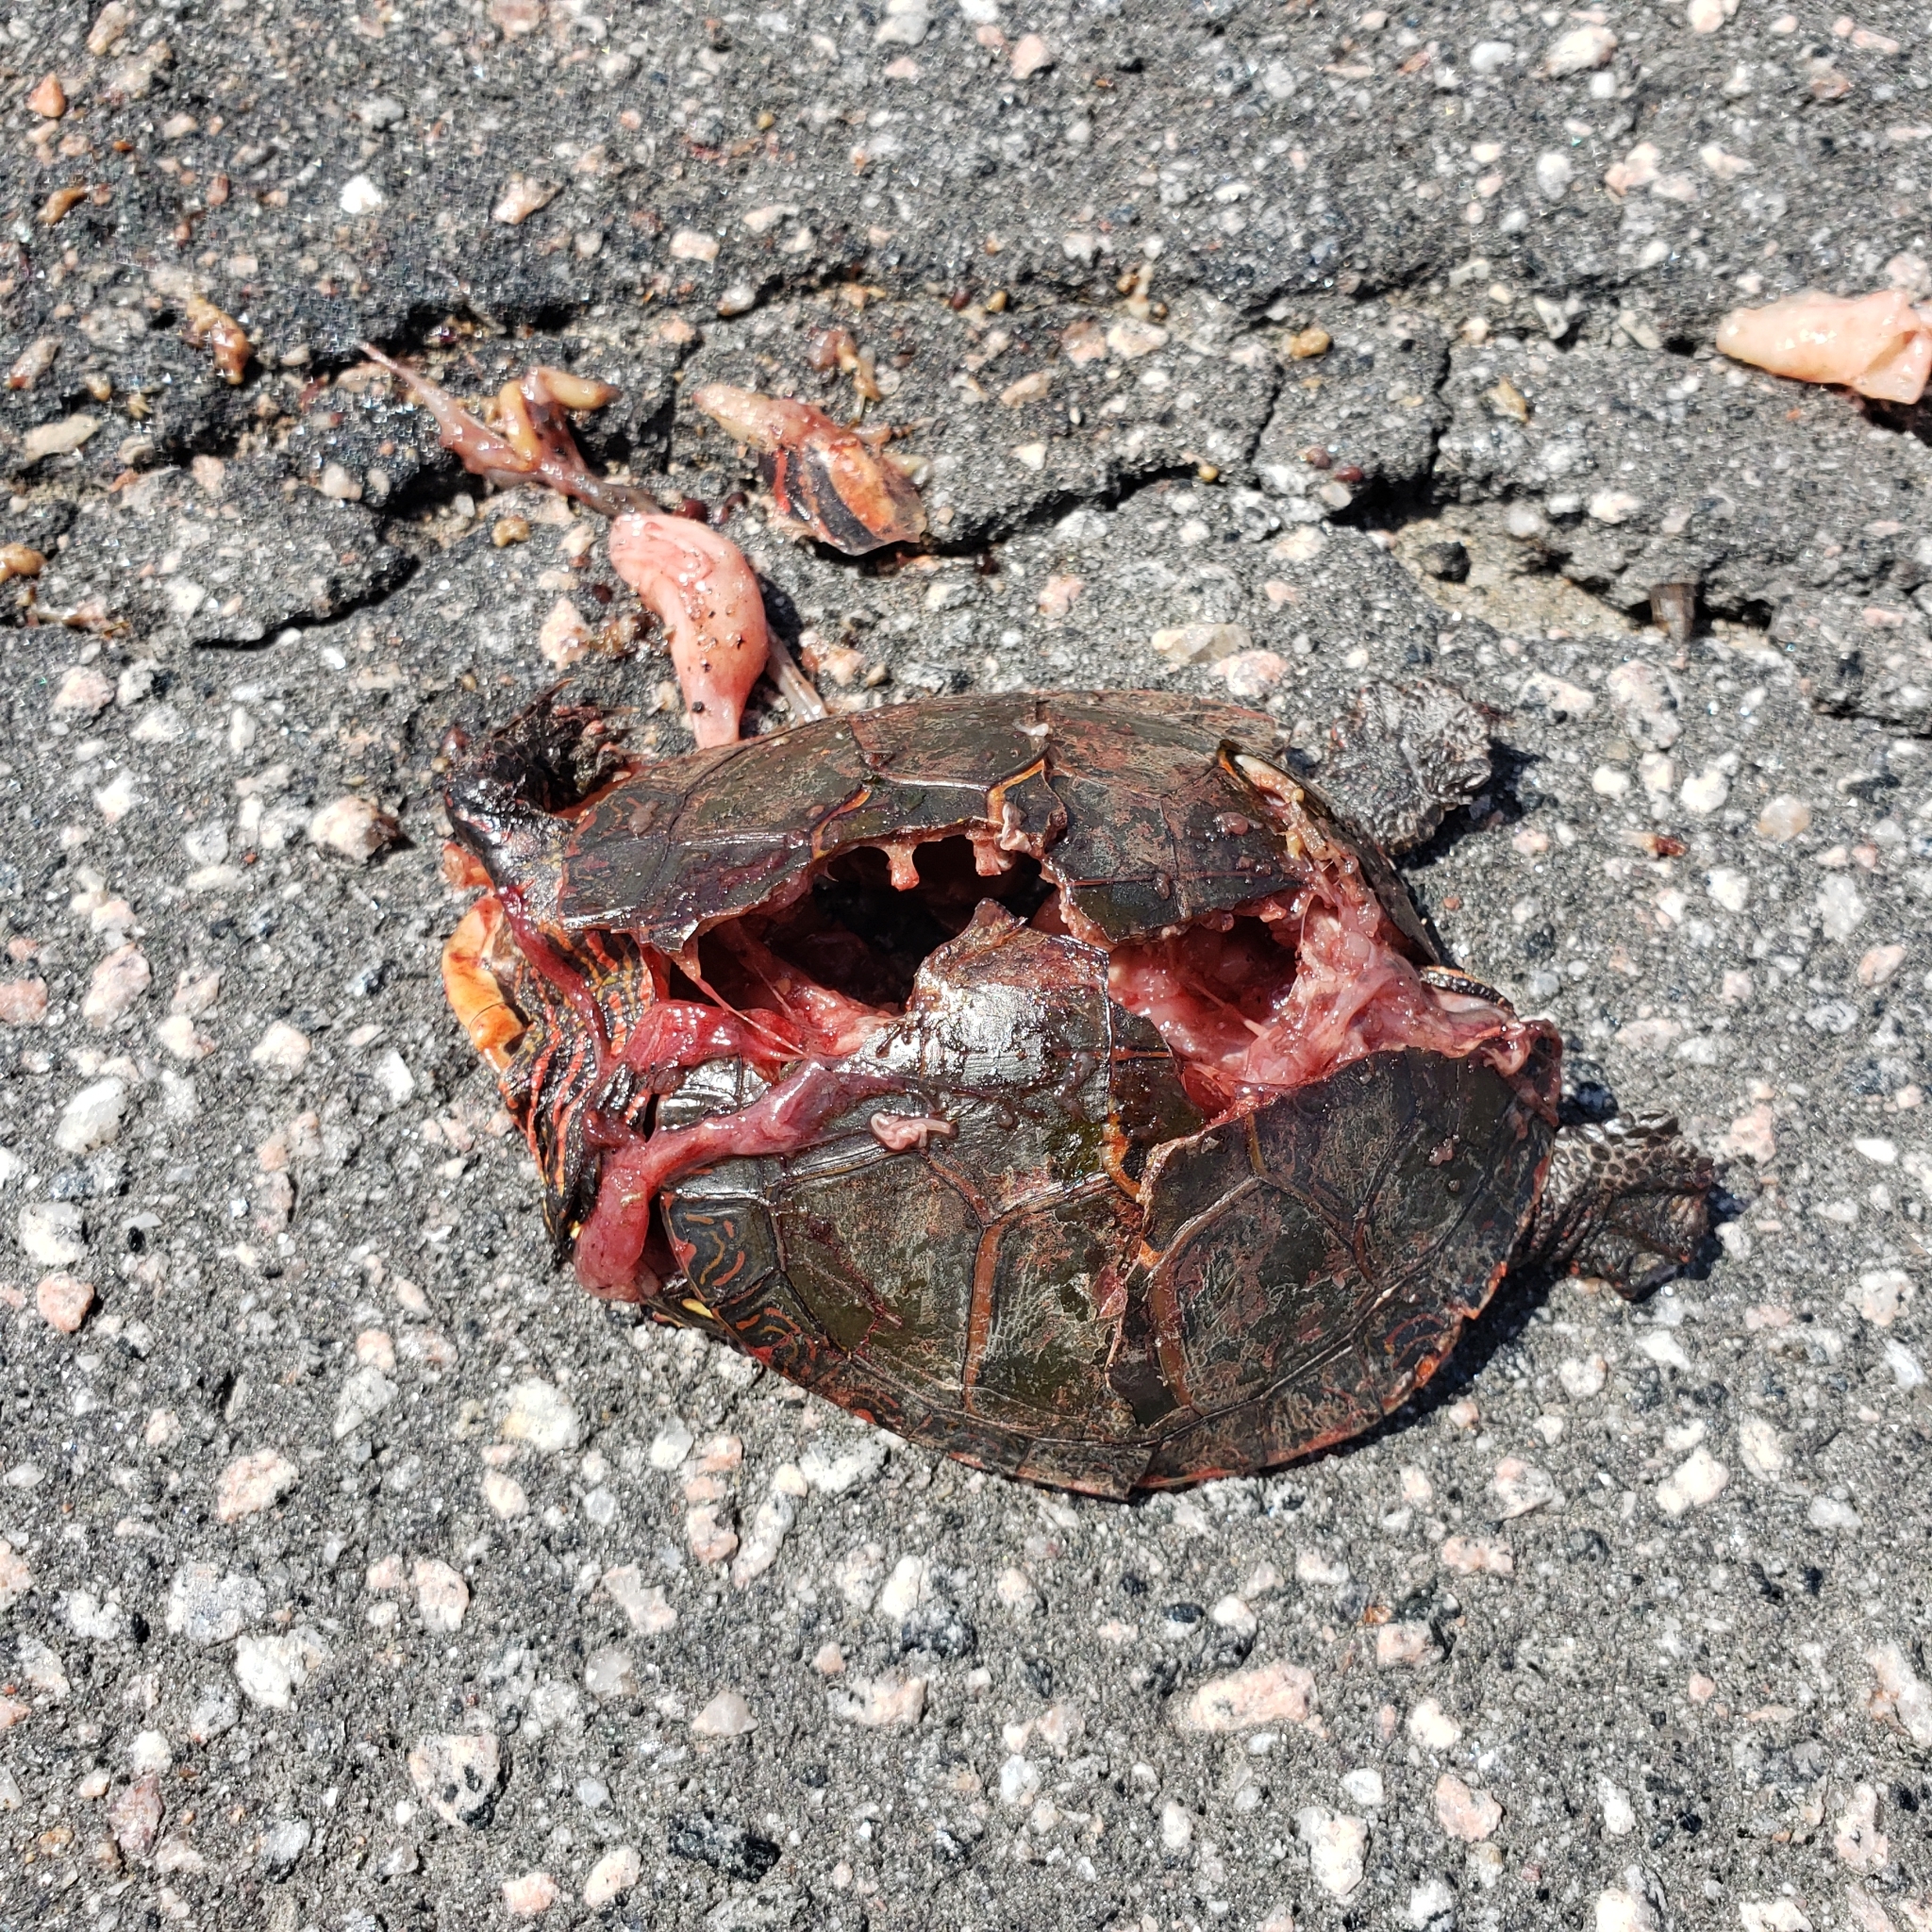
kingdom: Animalia
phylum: Chordata
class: Testudines
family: Emydidae
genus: Chrysemys
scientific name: Chrysemys picta
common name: Painted turtle
